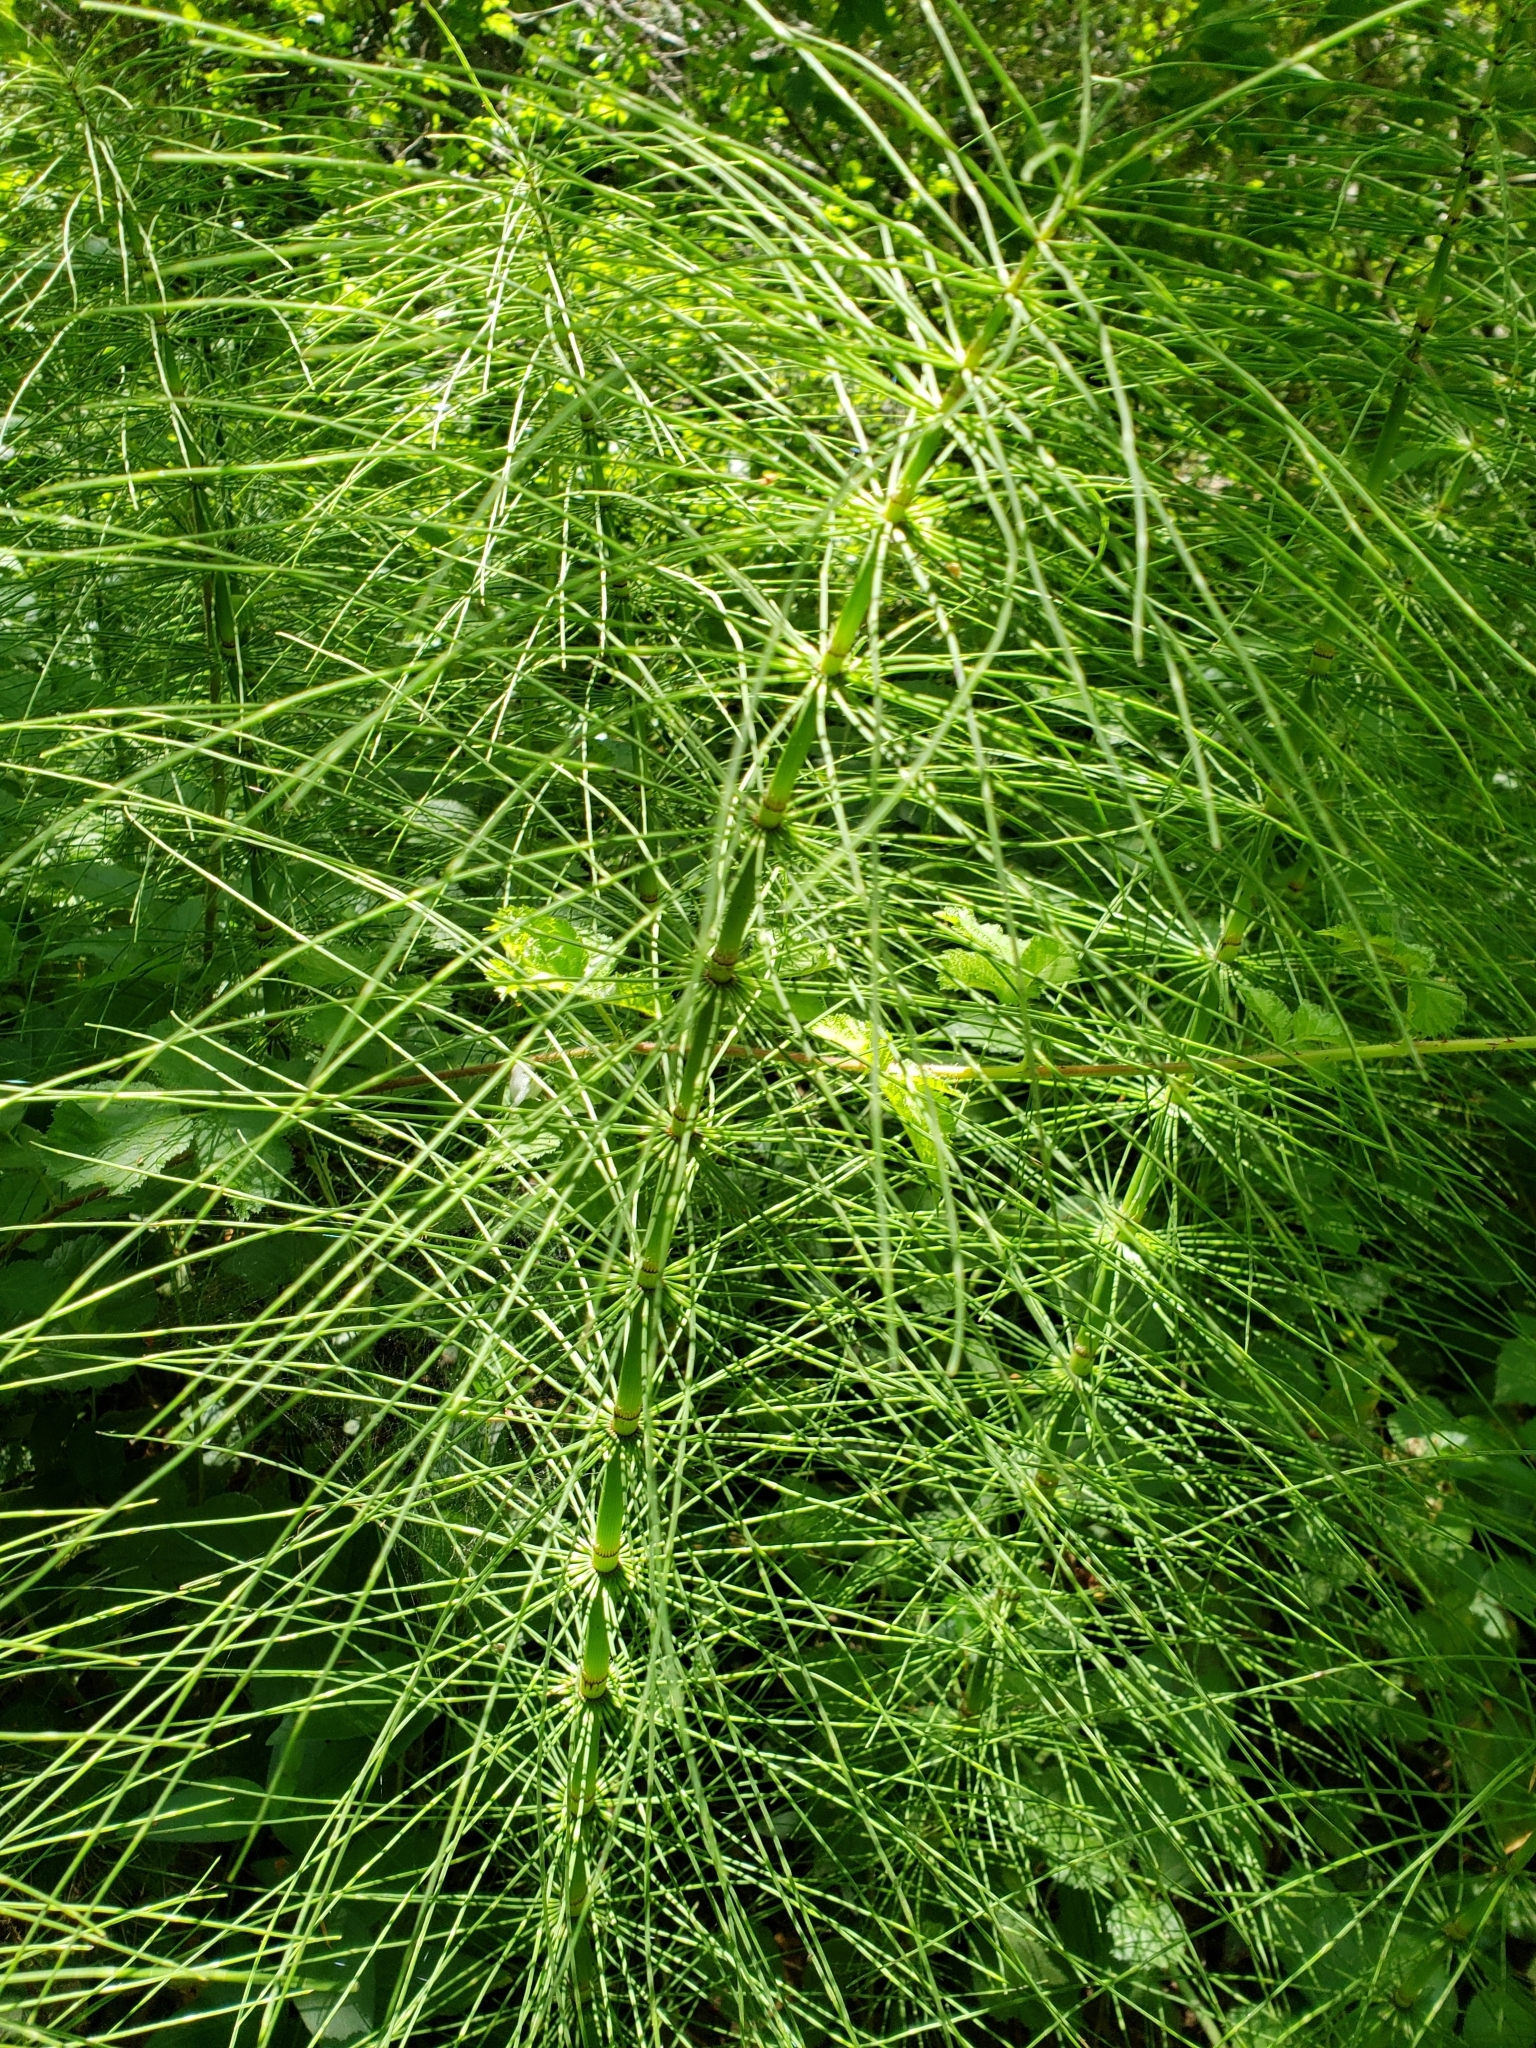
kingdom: Plantae
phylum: Tracheophyta
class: Polypodiopsida
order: Equisetales
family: Equisetaceae
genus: Equisetum
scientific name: Equisetum telmateia
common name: Great horsetail
